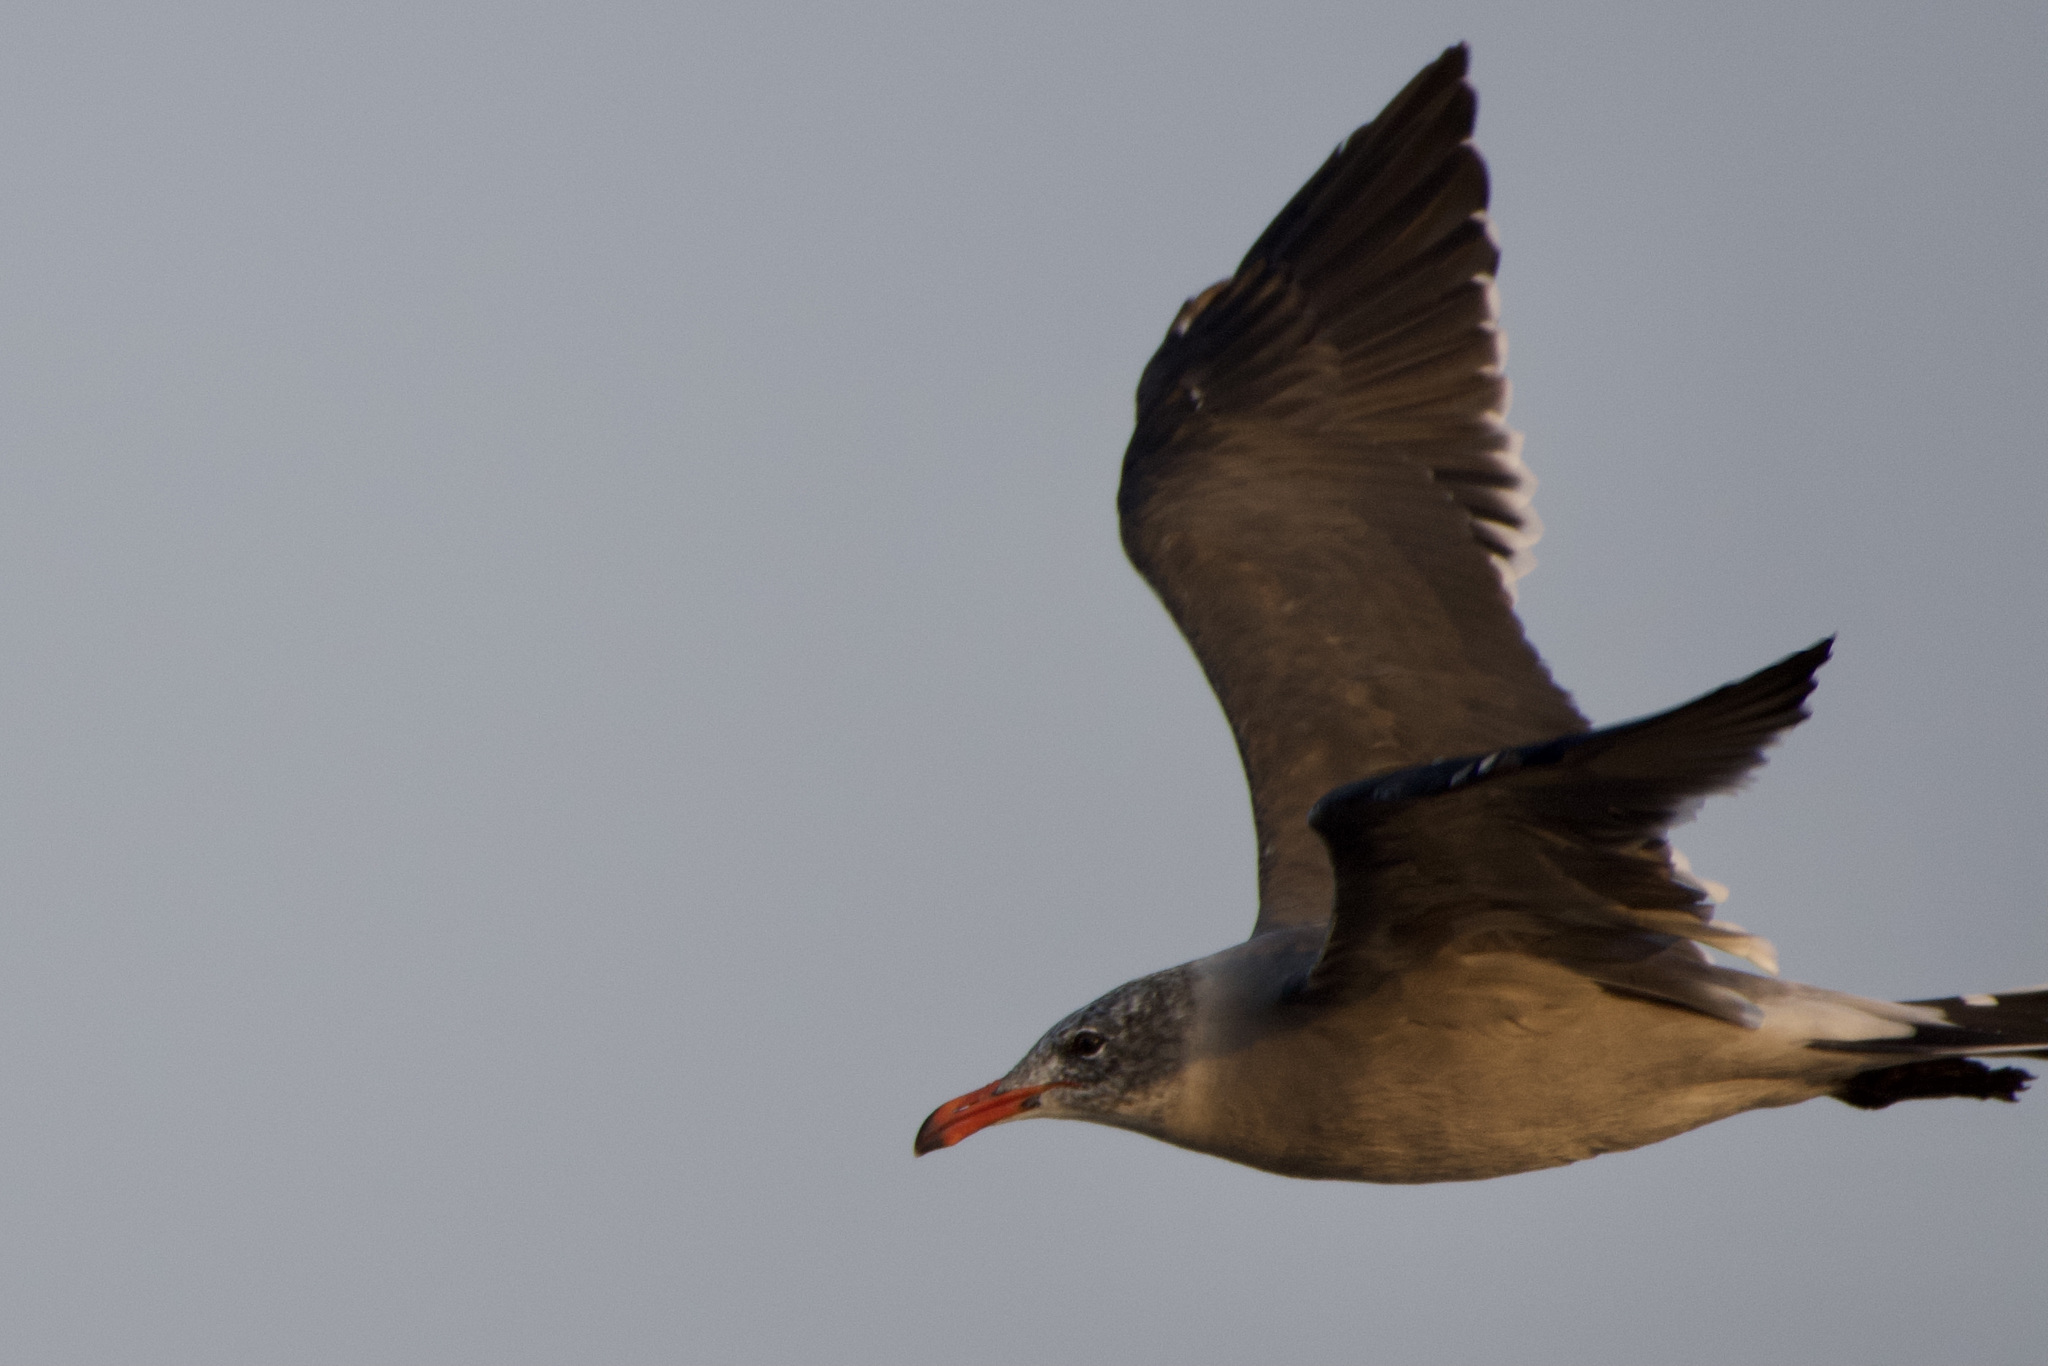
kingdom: Animalia
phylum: Chordata
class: Aves
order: Charadriiformes
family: Laridae
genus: Larus
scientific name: Larus heermanni
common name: Heermann's gull
